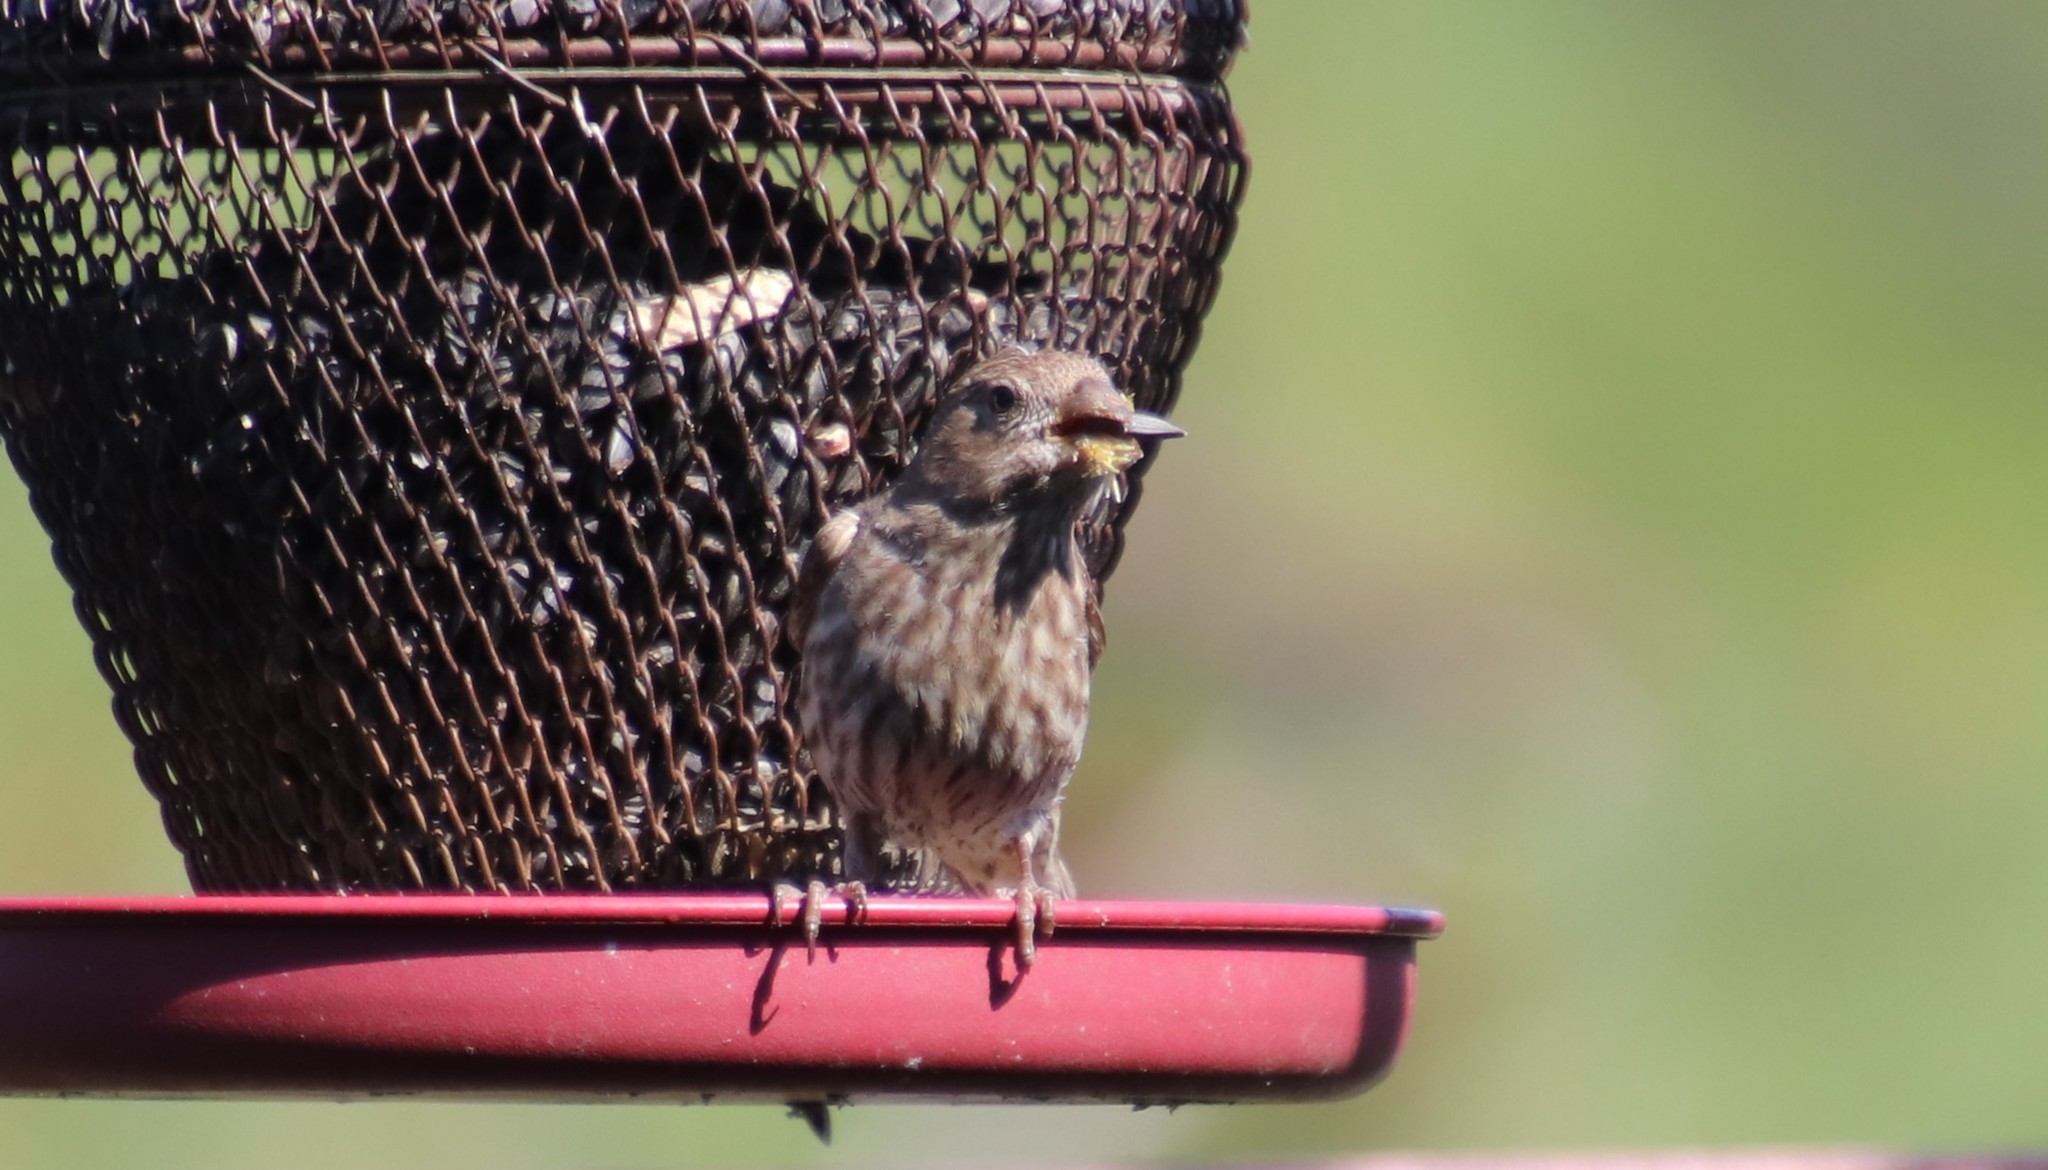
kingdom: Animalia
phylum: Chordata
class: Aves
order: Passeriformes
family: Fringillidae
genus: Haemorhous
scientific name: Haemorhous mexicanus
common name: House finch
